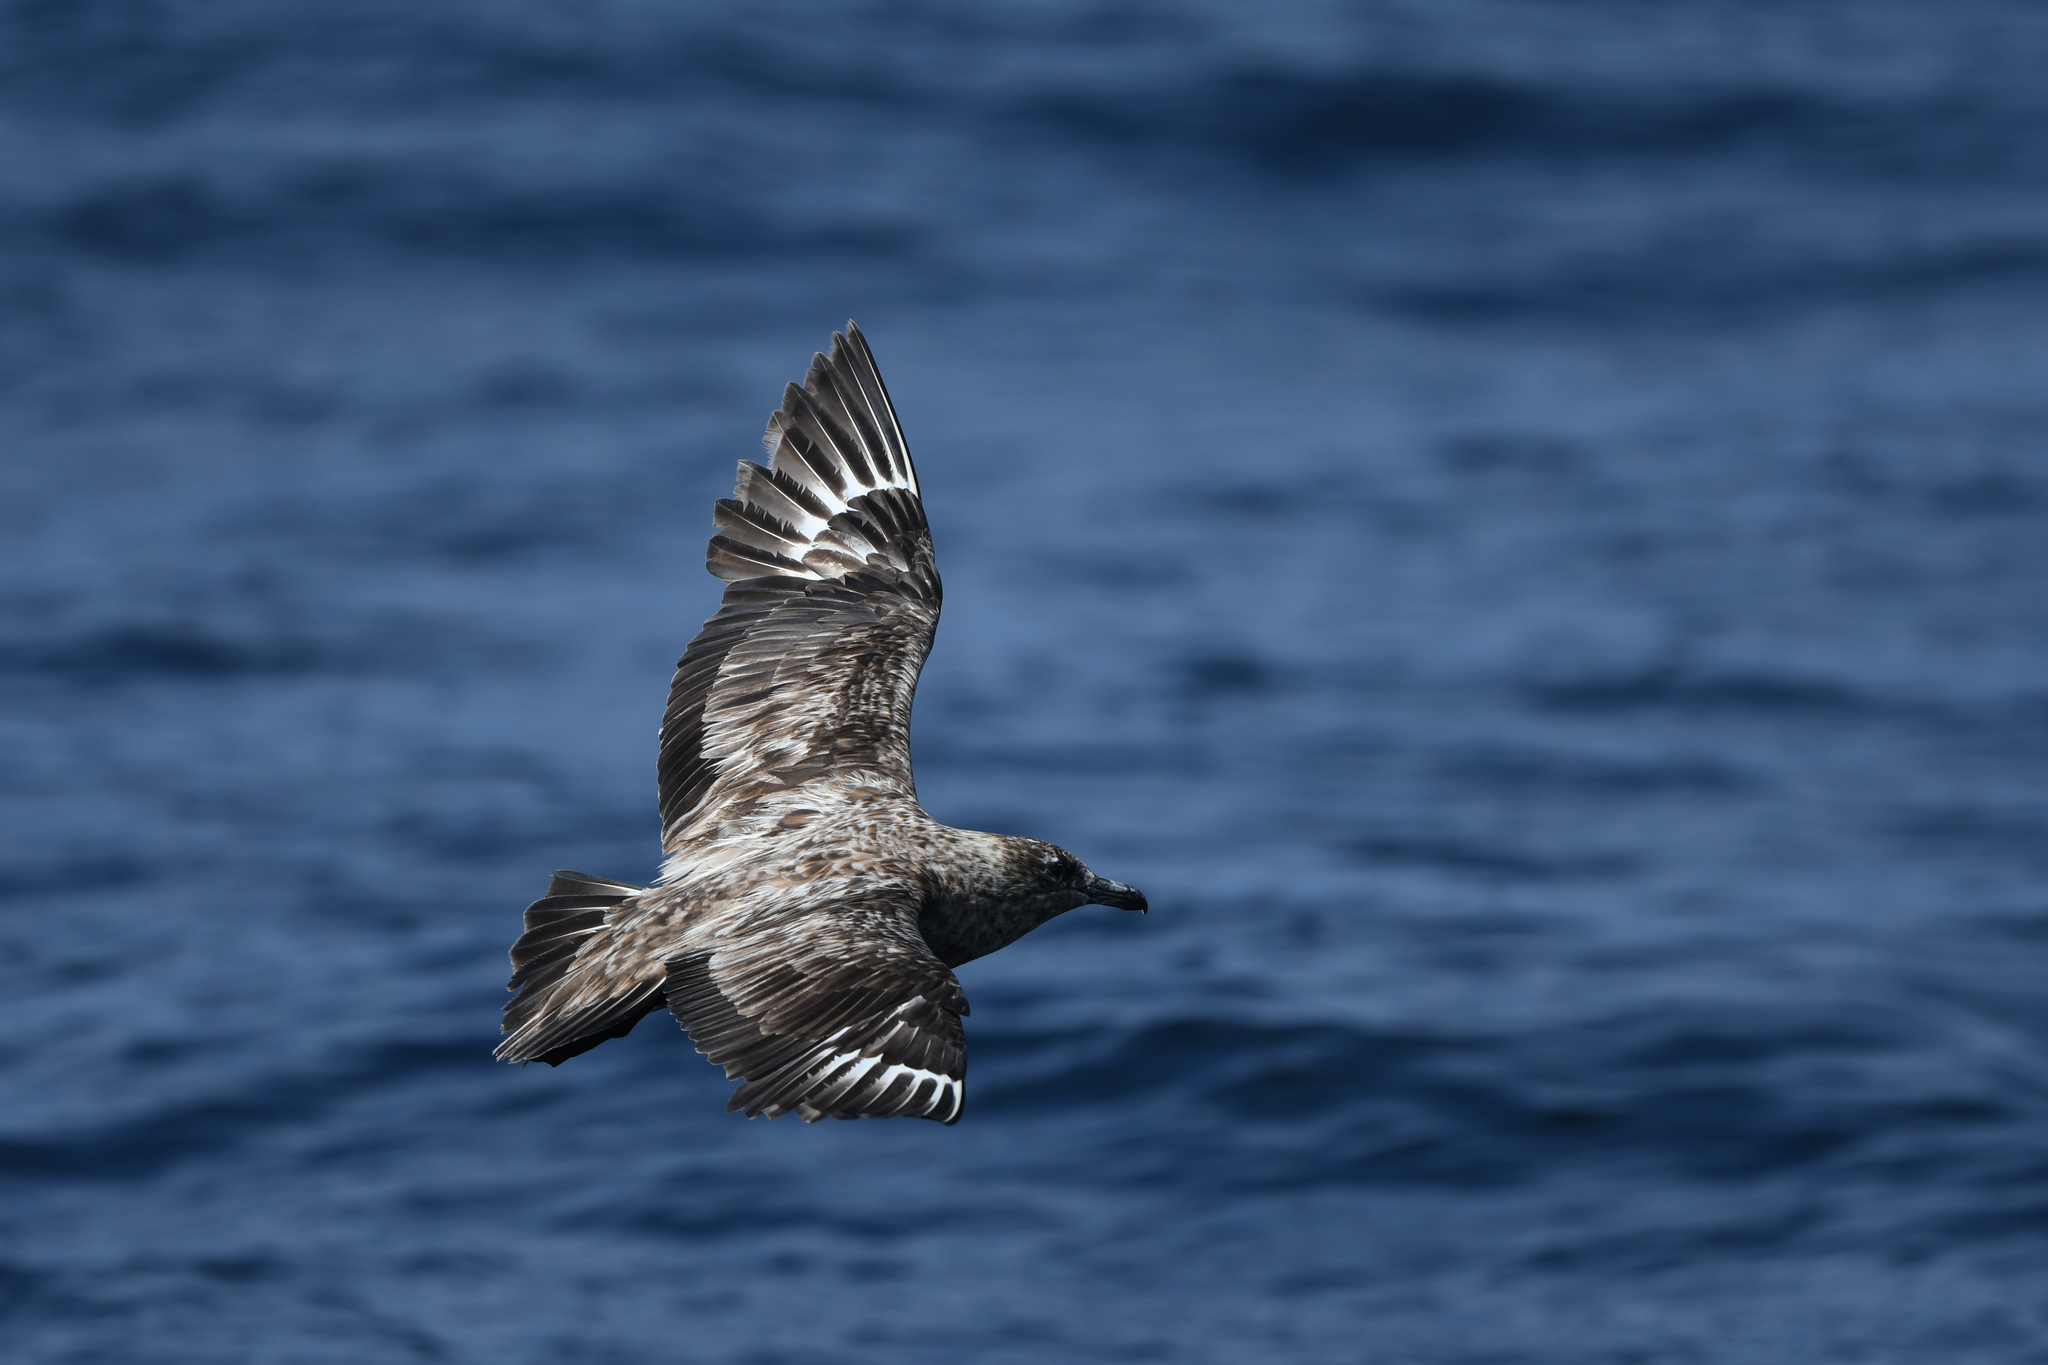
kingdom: Animalia
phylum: Chordata
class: Aves
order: Charadriiformes
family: Stercorariidae
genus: Stercorarius
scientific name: Stercorarius skua
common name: Great skua
